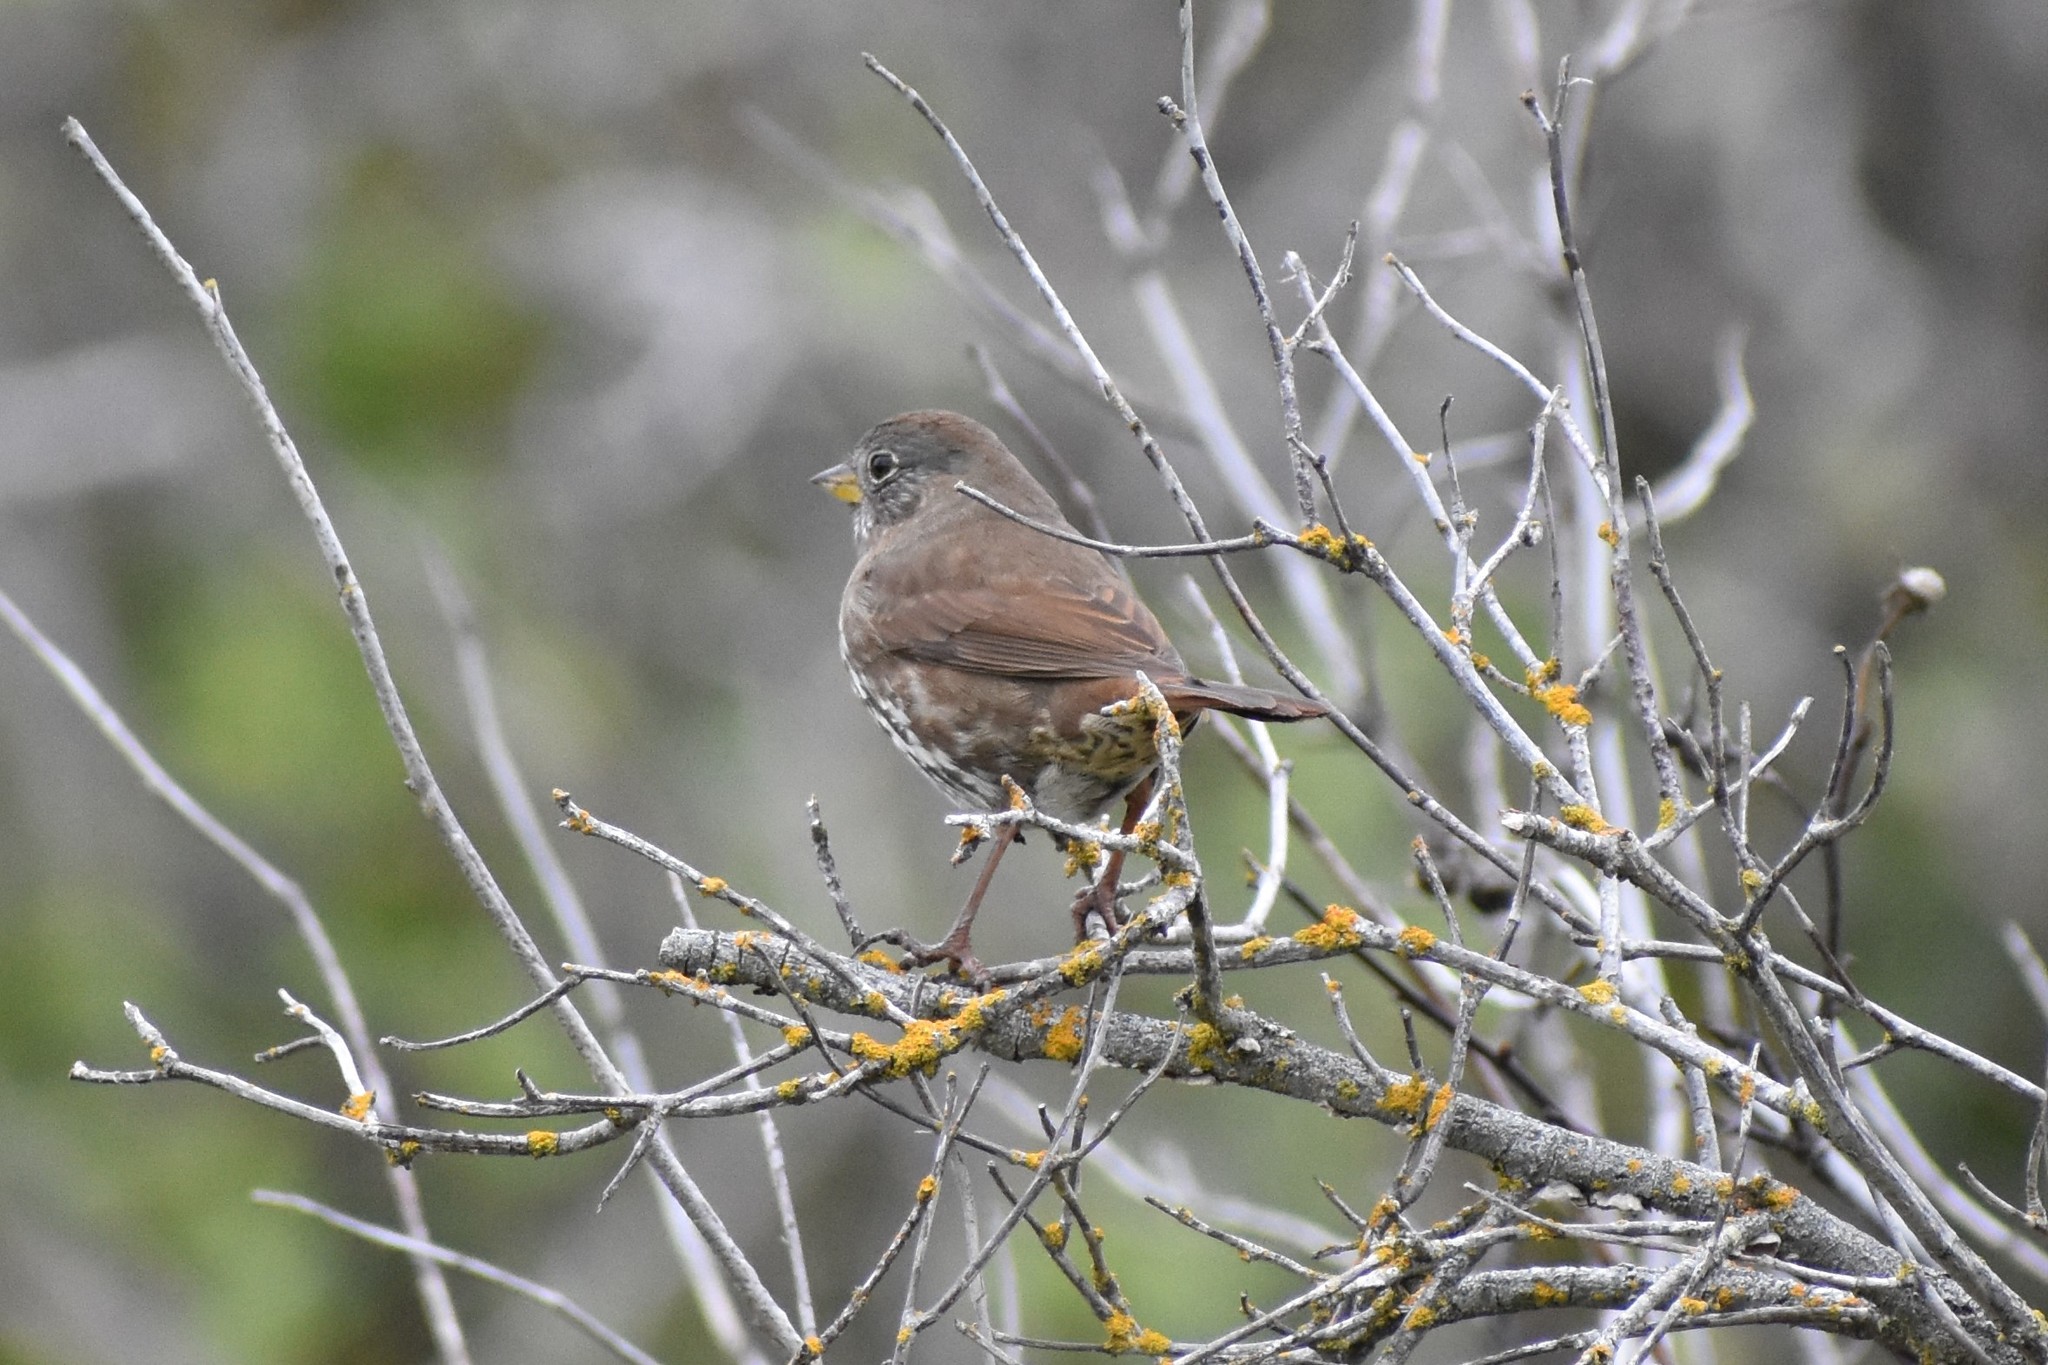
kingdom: Animalia
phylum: Chordata
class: Aves
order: Passeriformes
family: Passerellidae
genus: Passerella
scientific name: Passerella iliaca
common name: Fox sparrow
